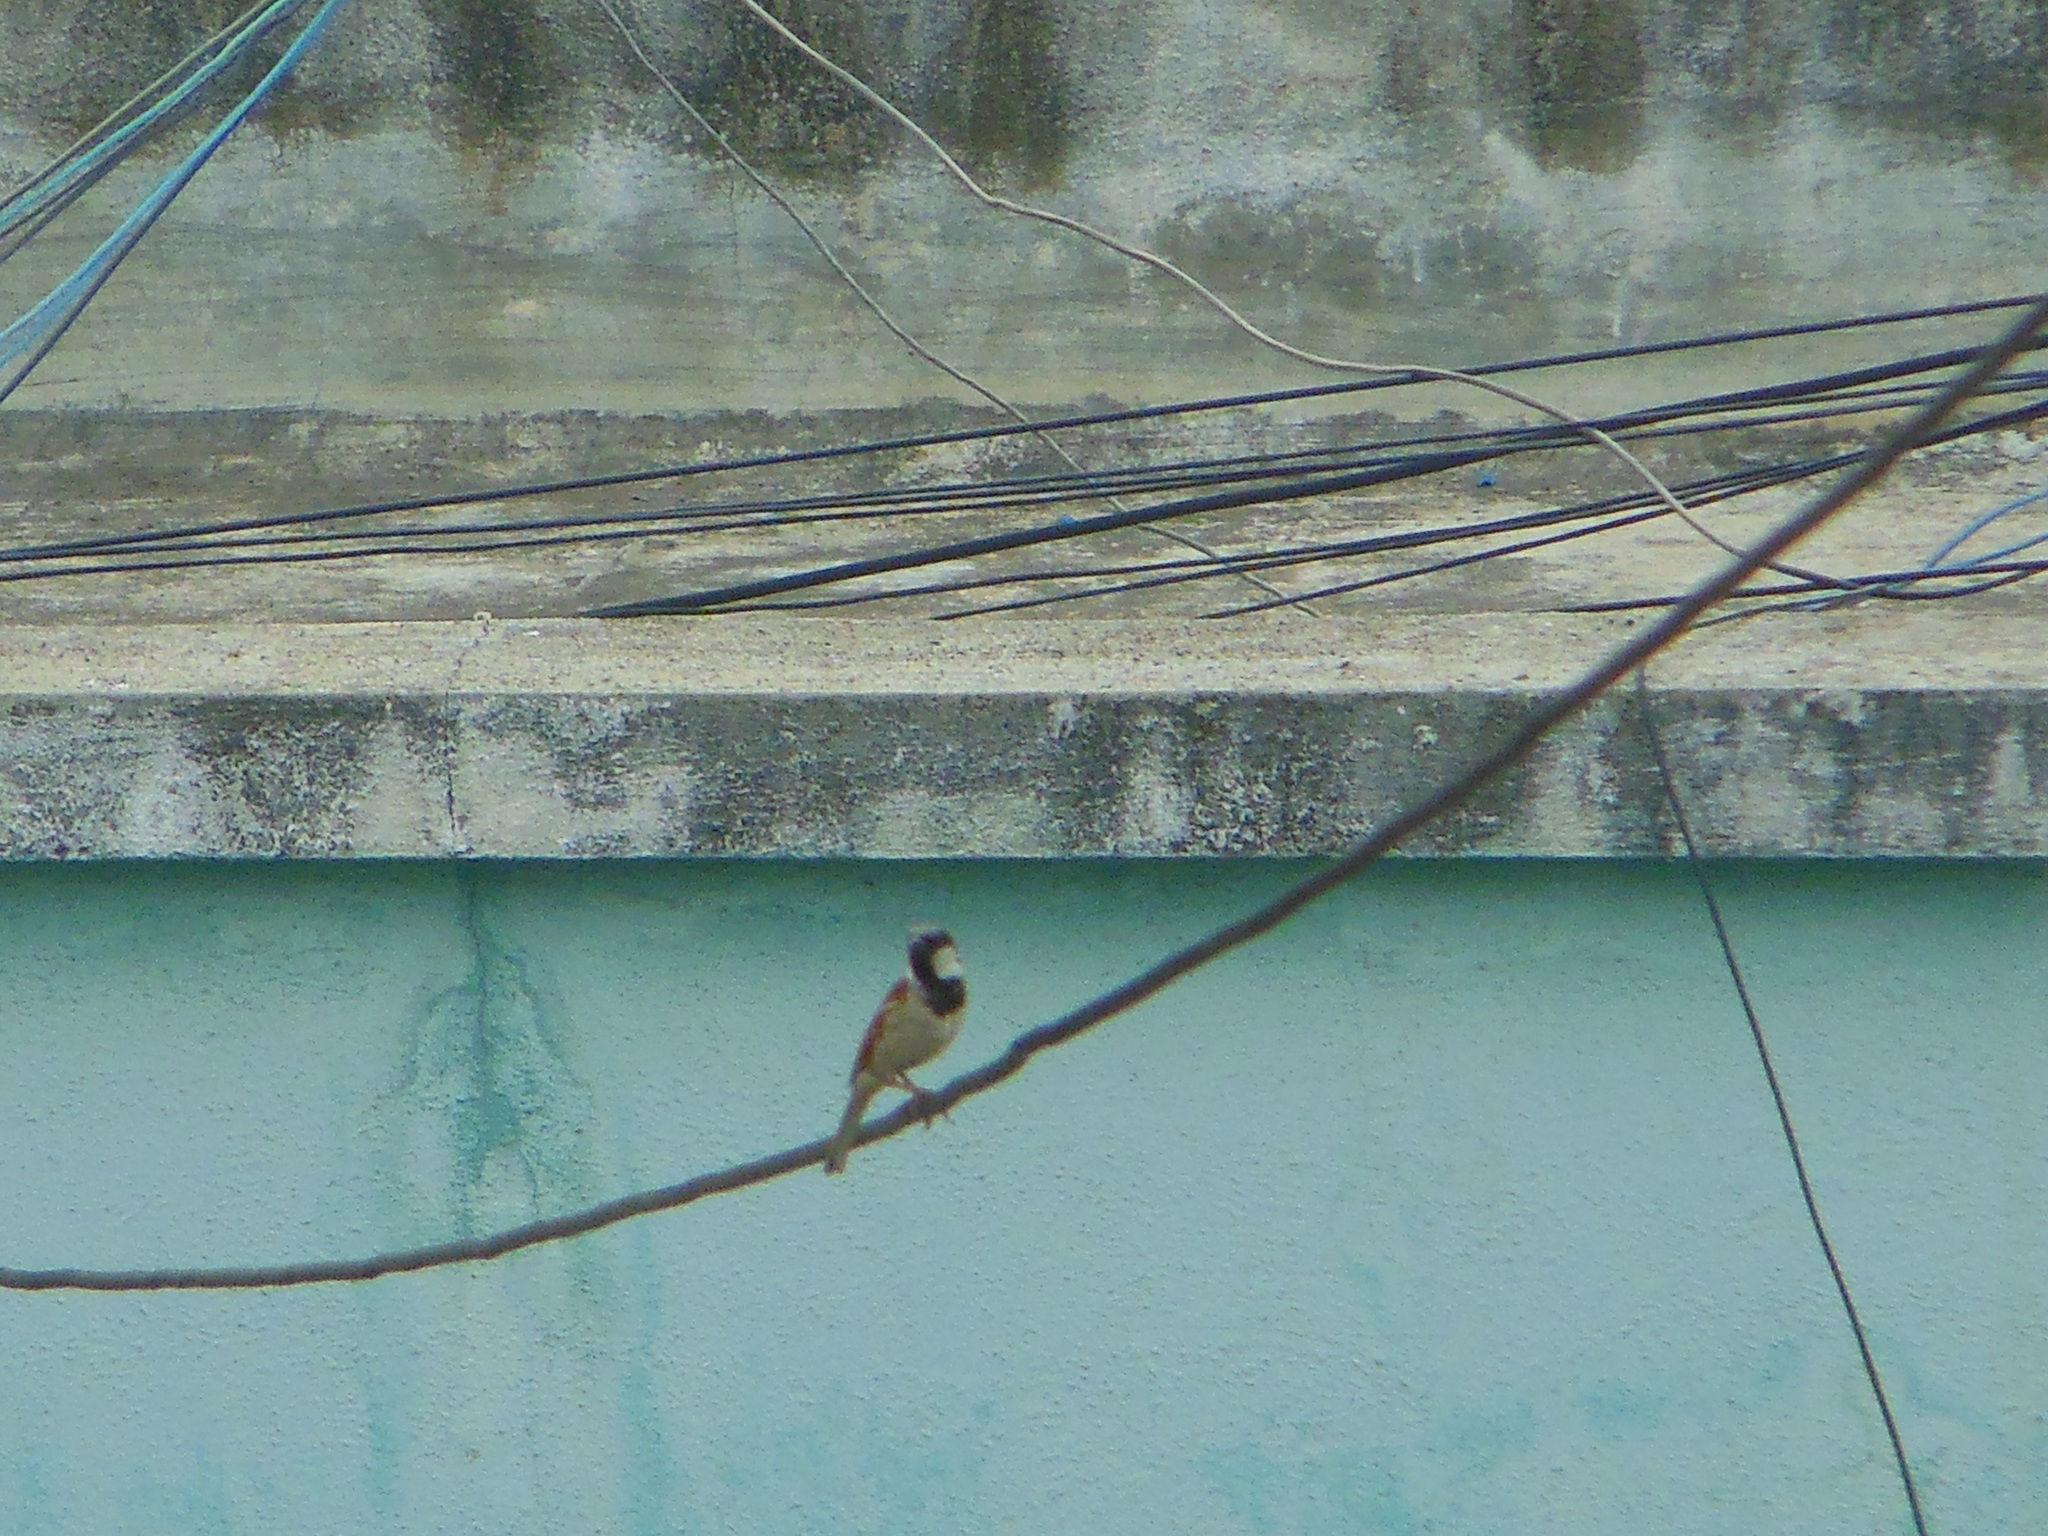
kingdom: Animalia
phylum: Chordata
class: Aves
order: Passeriformes
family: Passeridae
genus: Passer
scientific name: Passer domesticus
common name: House sparrow
